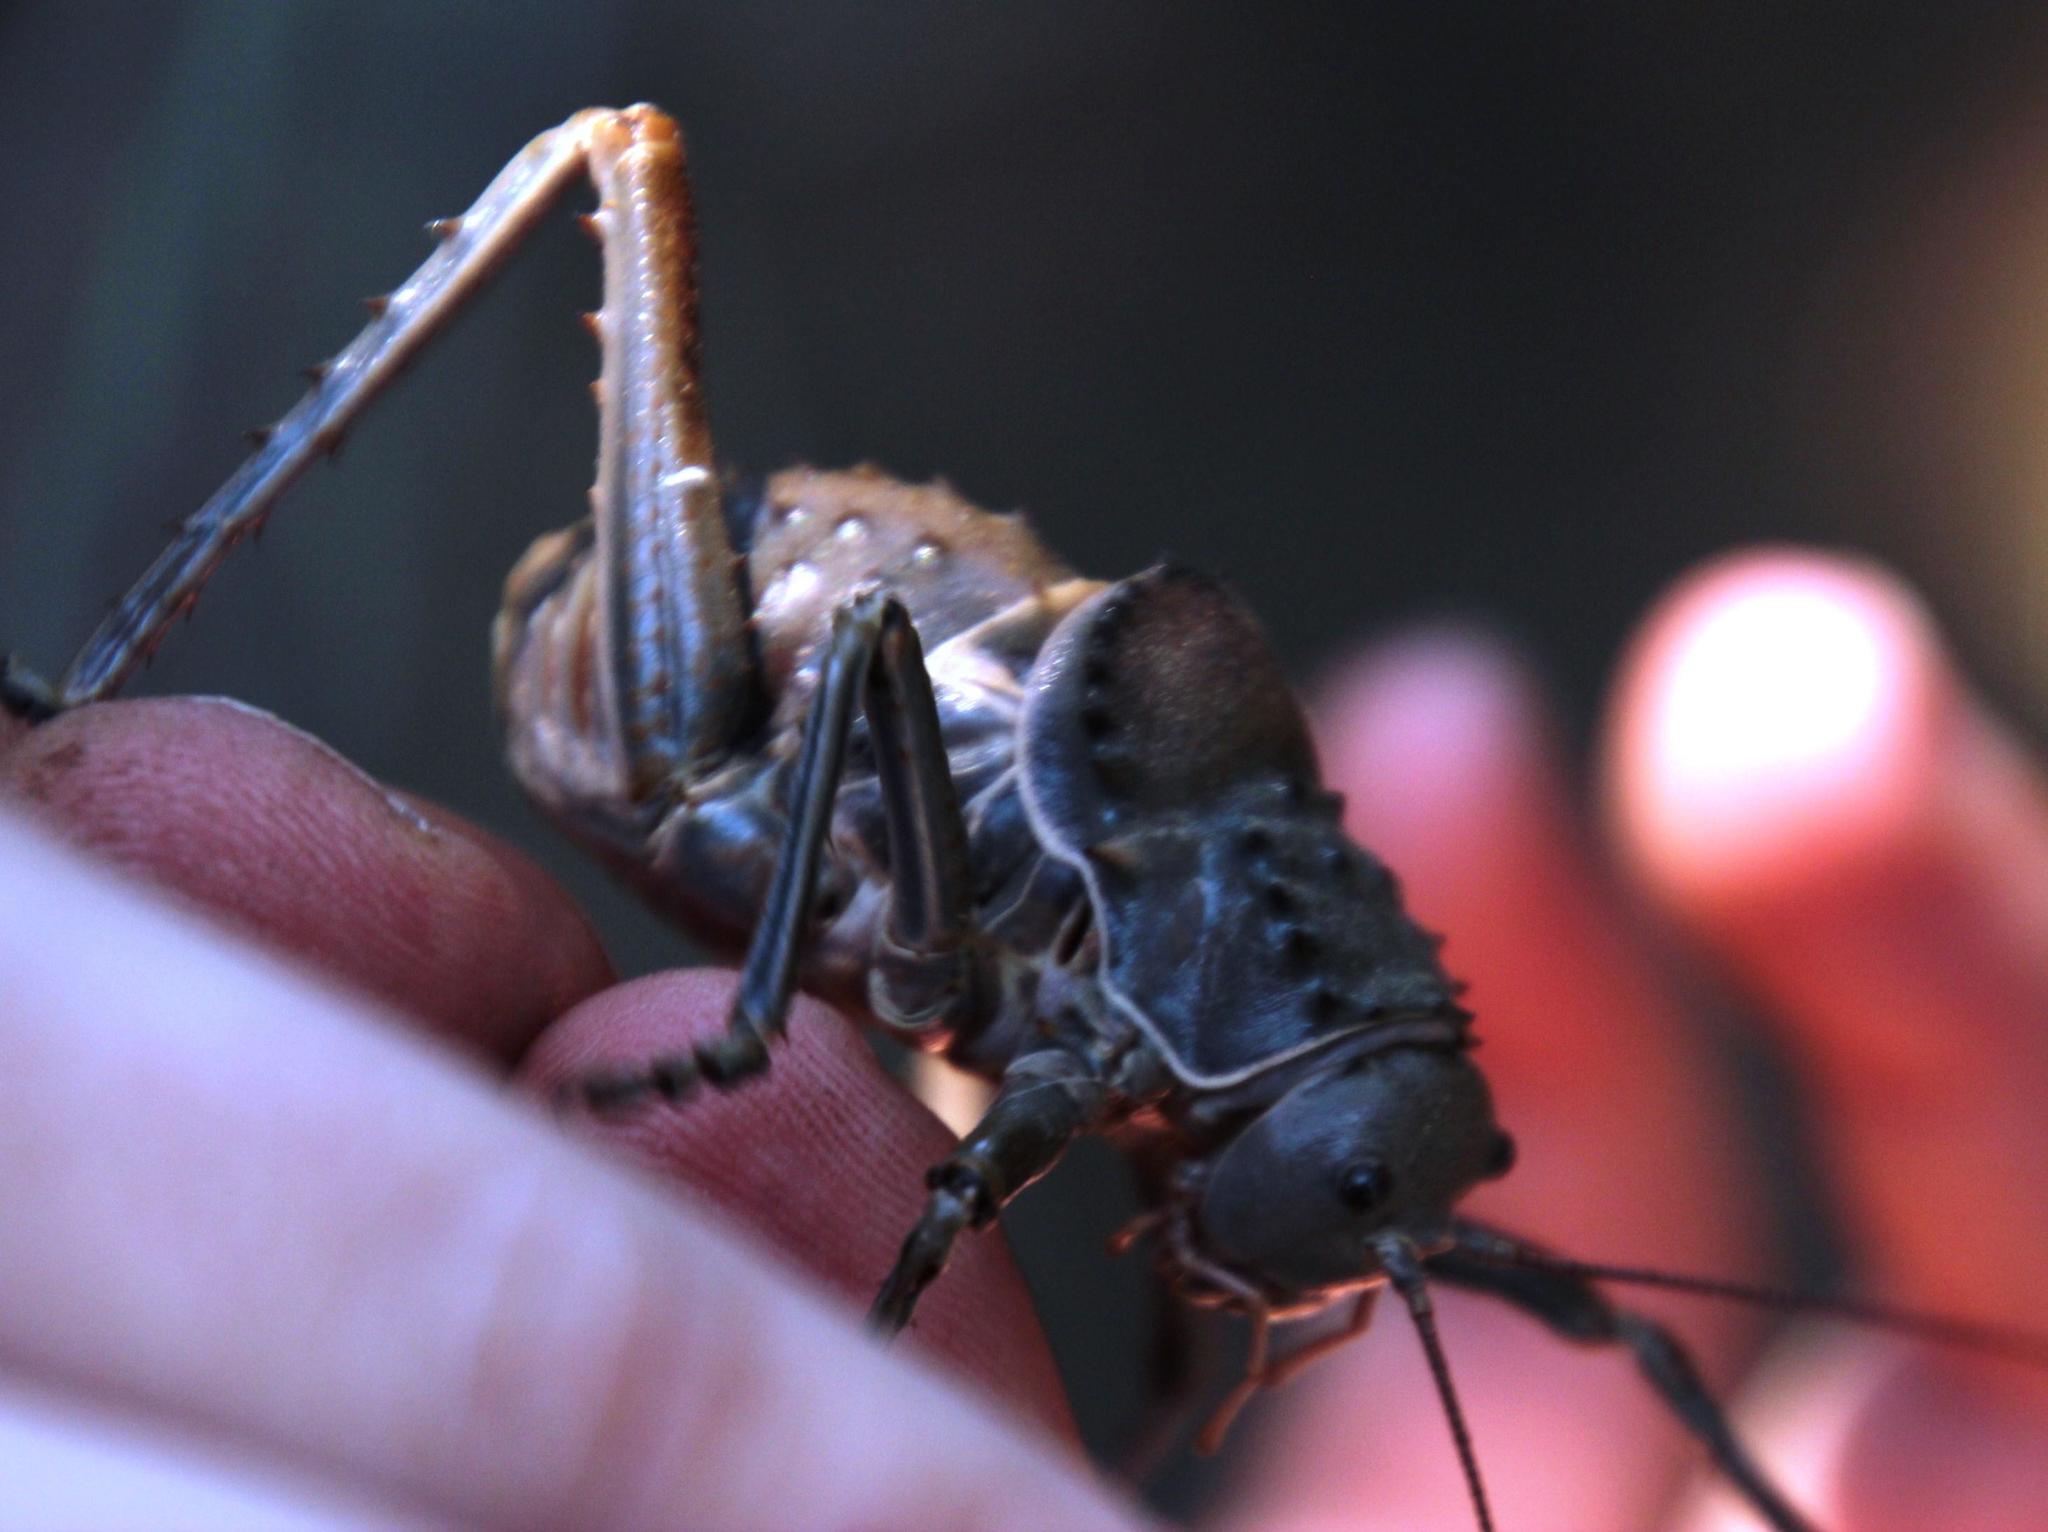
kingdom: Animalia
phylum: Arthropoda
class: Insecta
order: Orthoptera
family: Tettigoniidae
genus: Hetrodes
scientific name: Hetrodes pupus
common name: Koringkriek
